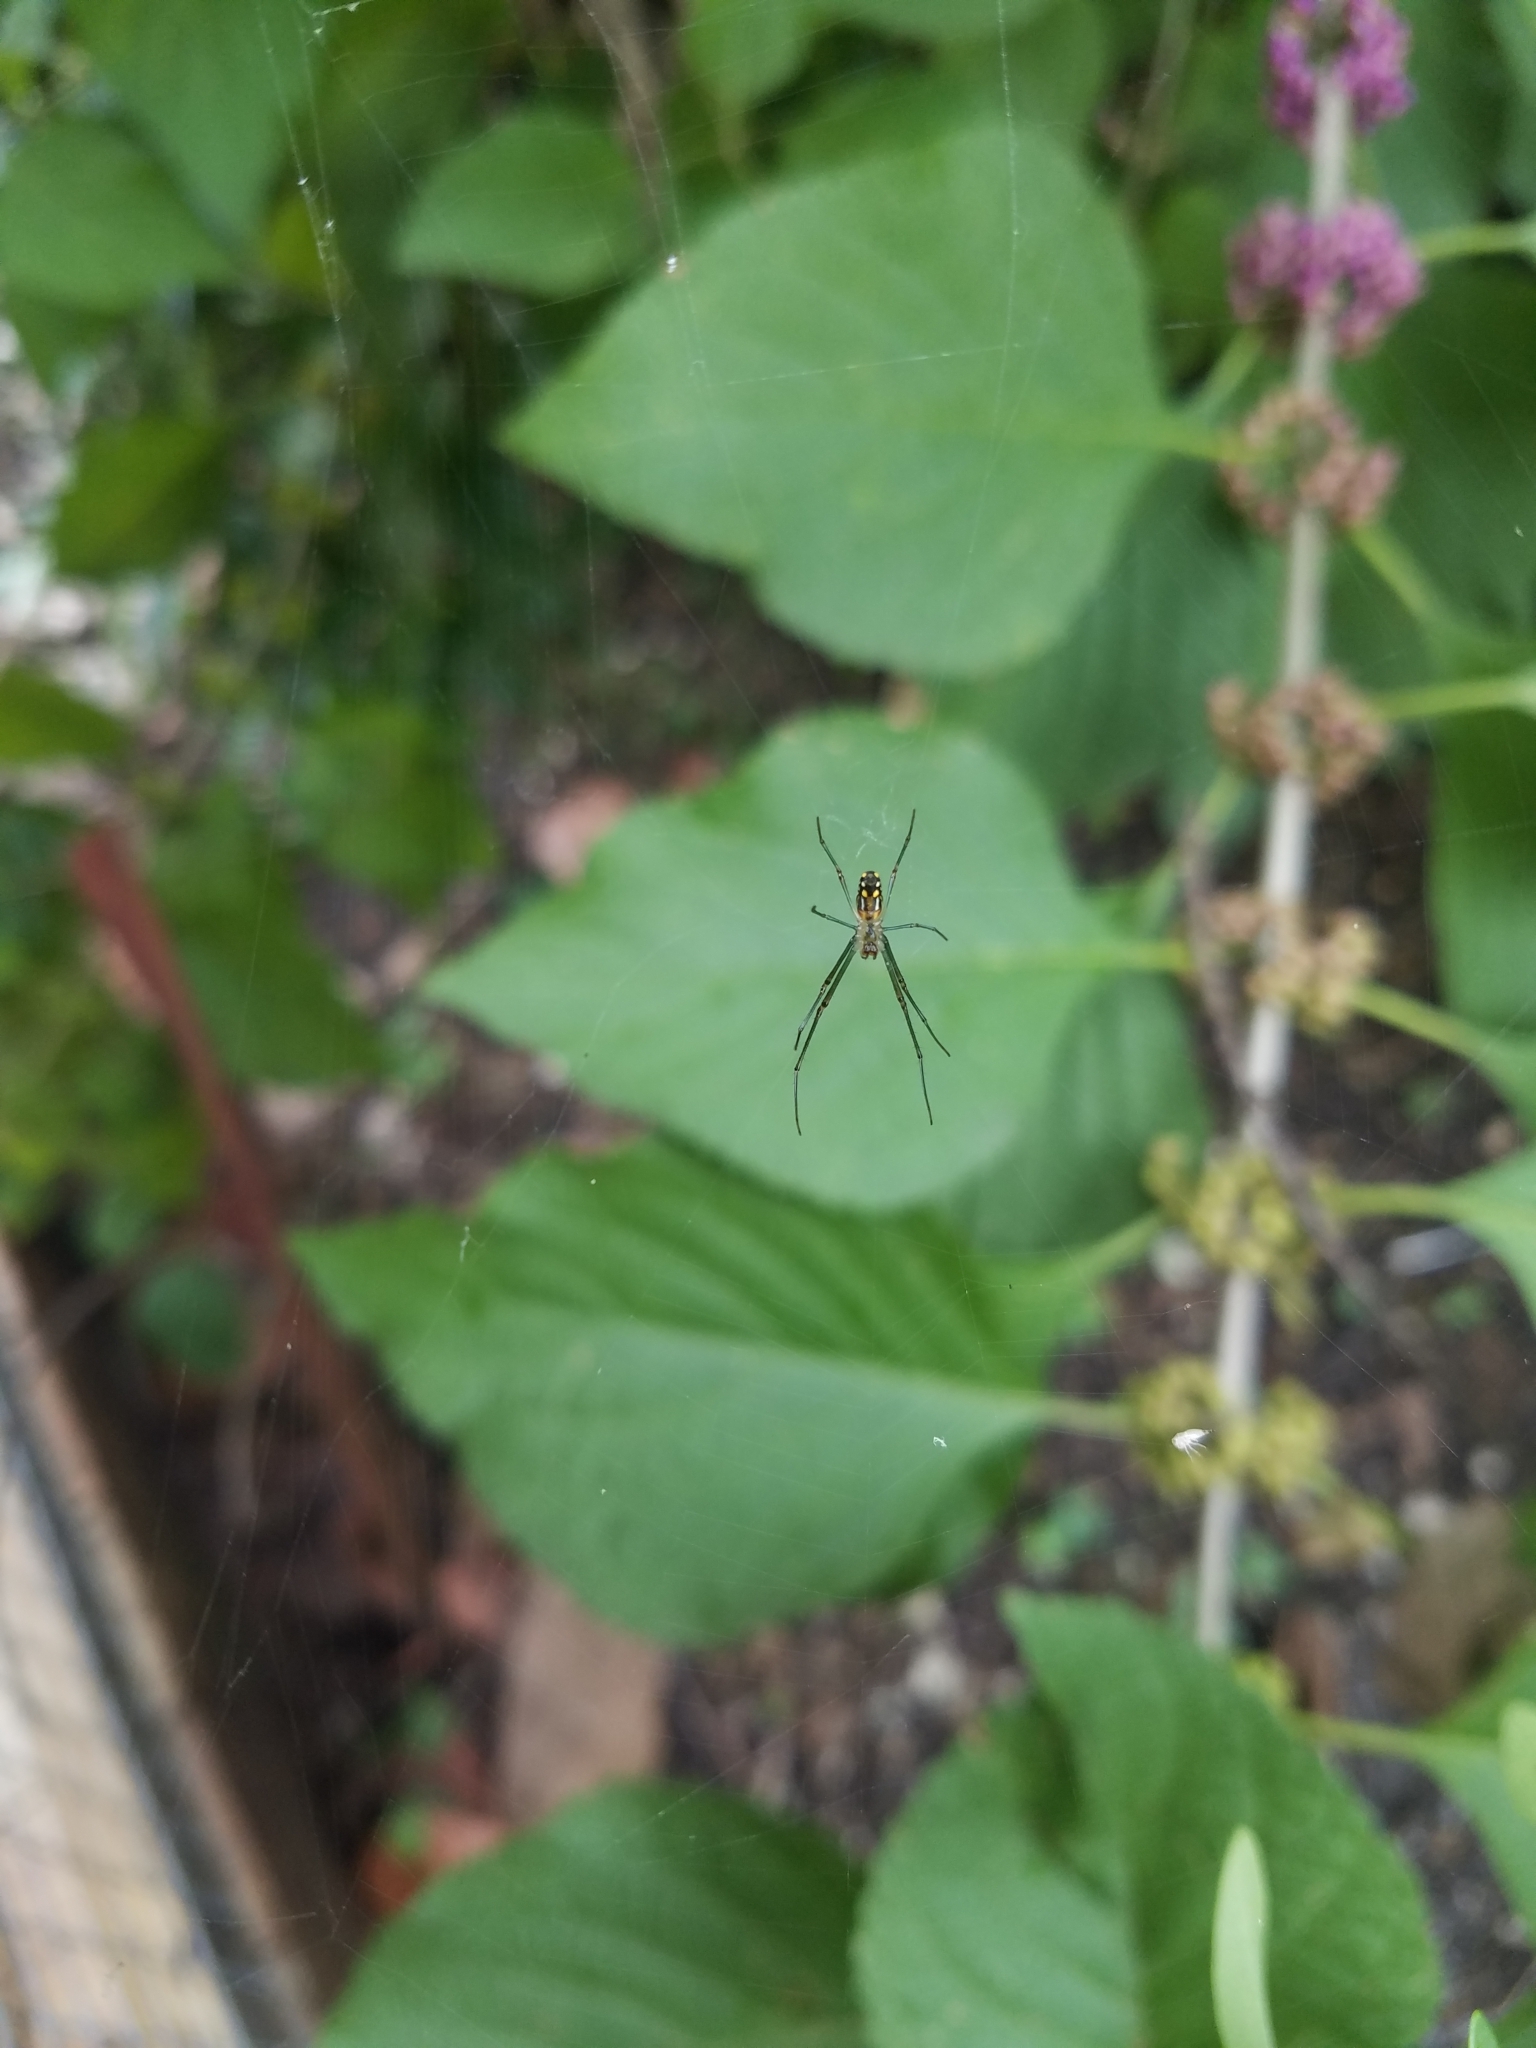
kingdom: Animalia
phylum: Arthropoda
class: Arachnida
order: Araneae
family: Tetragnathidae
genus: Leucauge
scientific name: Leucauge argyra
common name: Longjawed orb weavers
